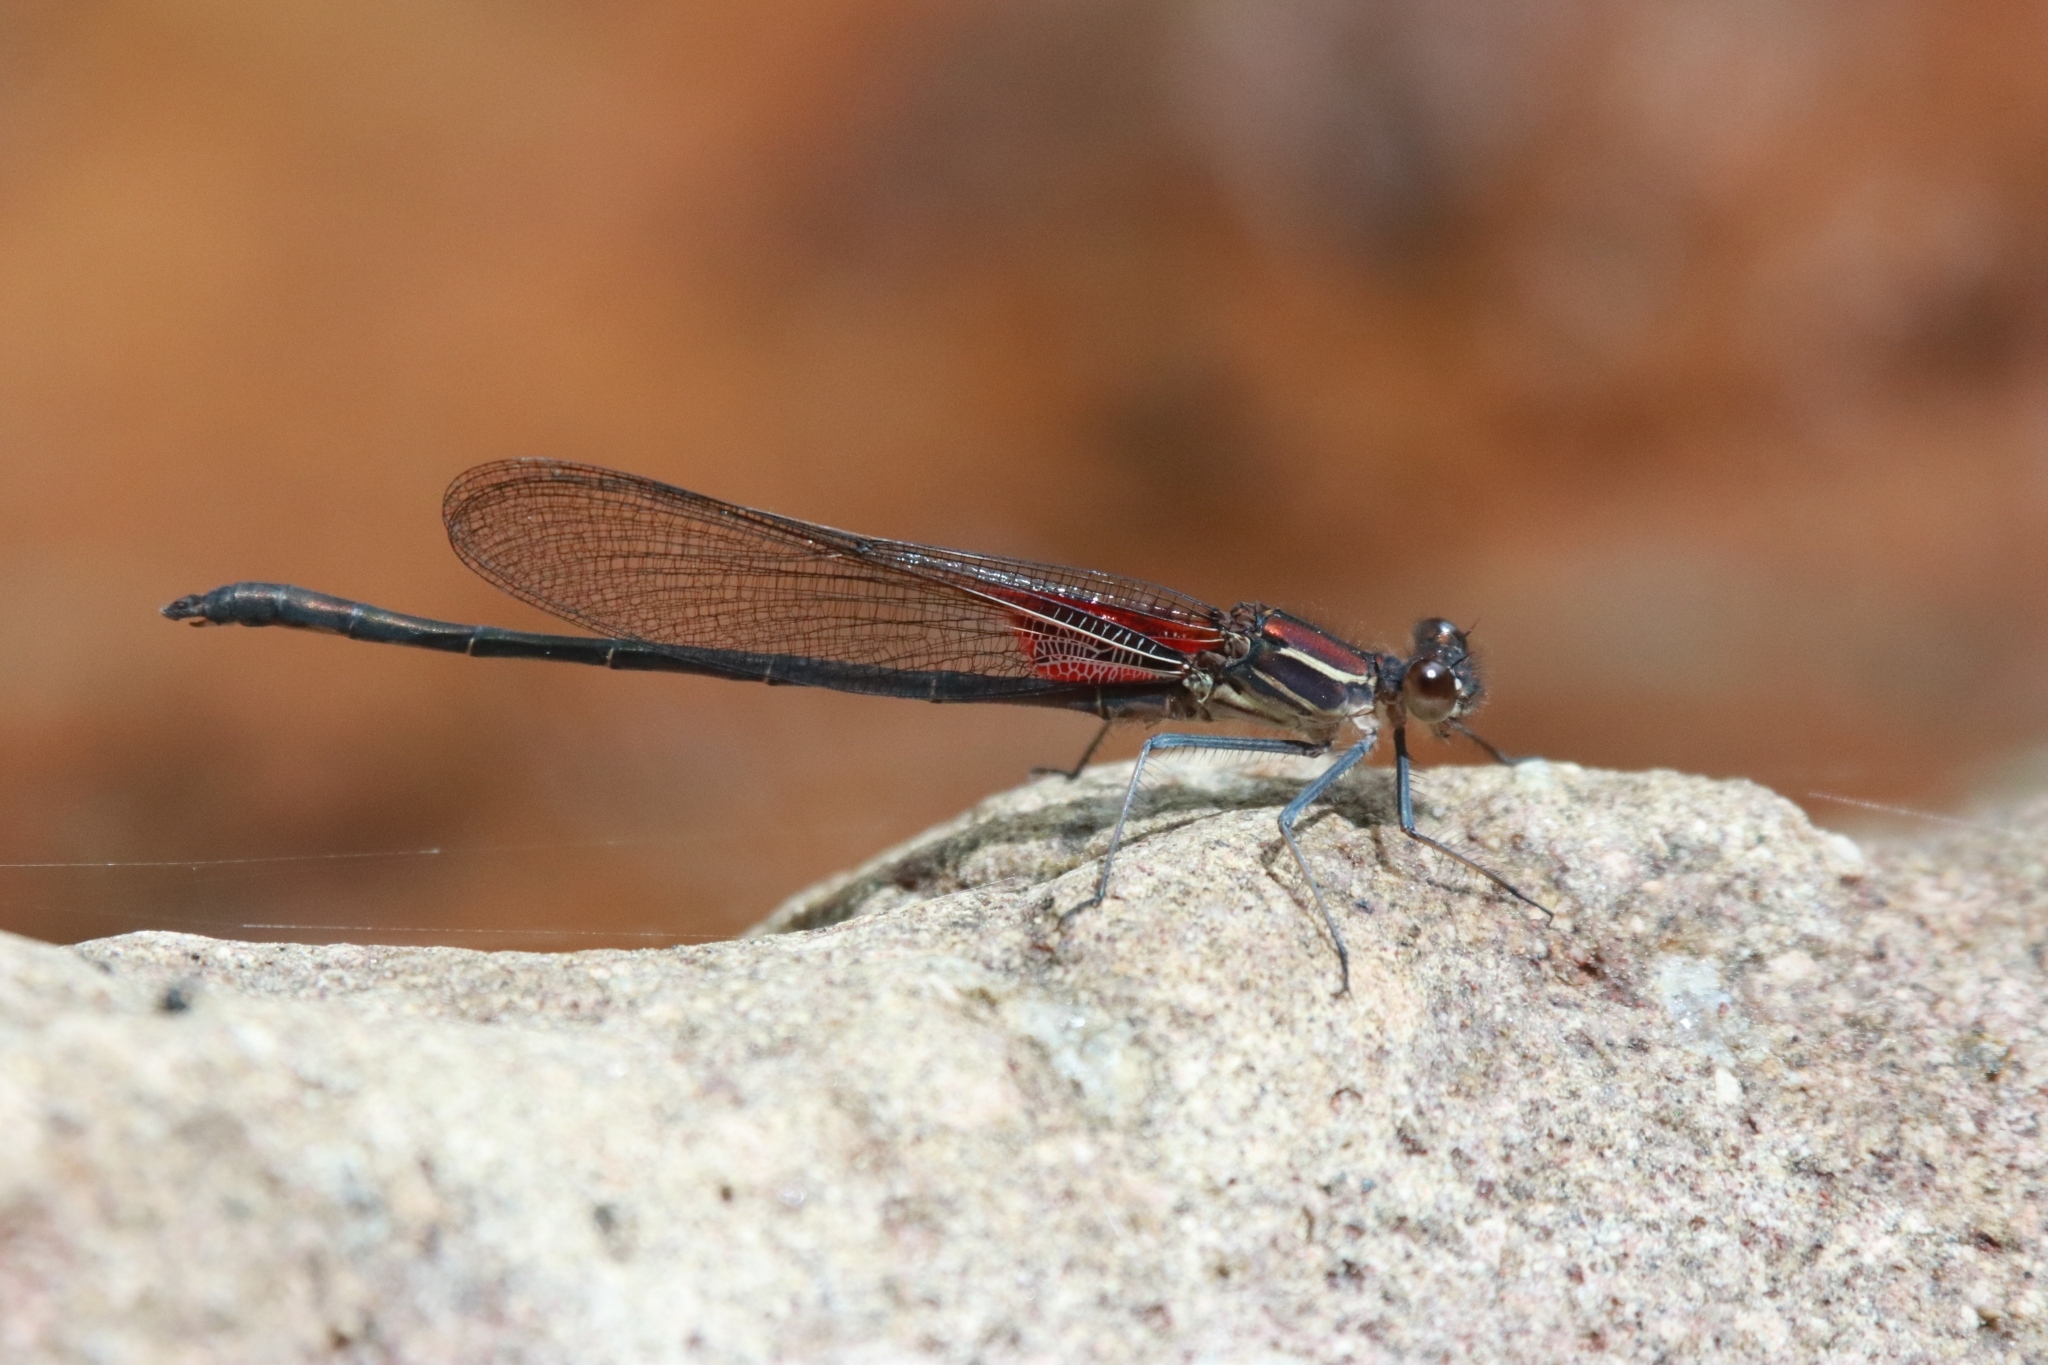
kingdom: Animalia
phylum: Arthropoda
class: Insecta
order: Odonata
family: Calopterygidae
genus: Hetaerina
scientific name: Hetaerina vulnerata
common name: Canyon rubyspot
